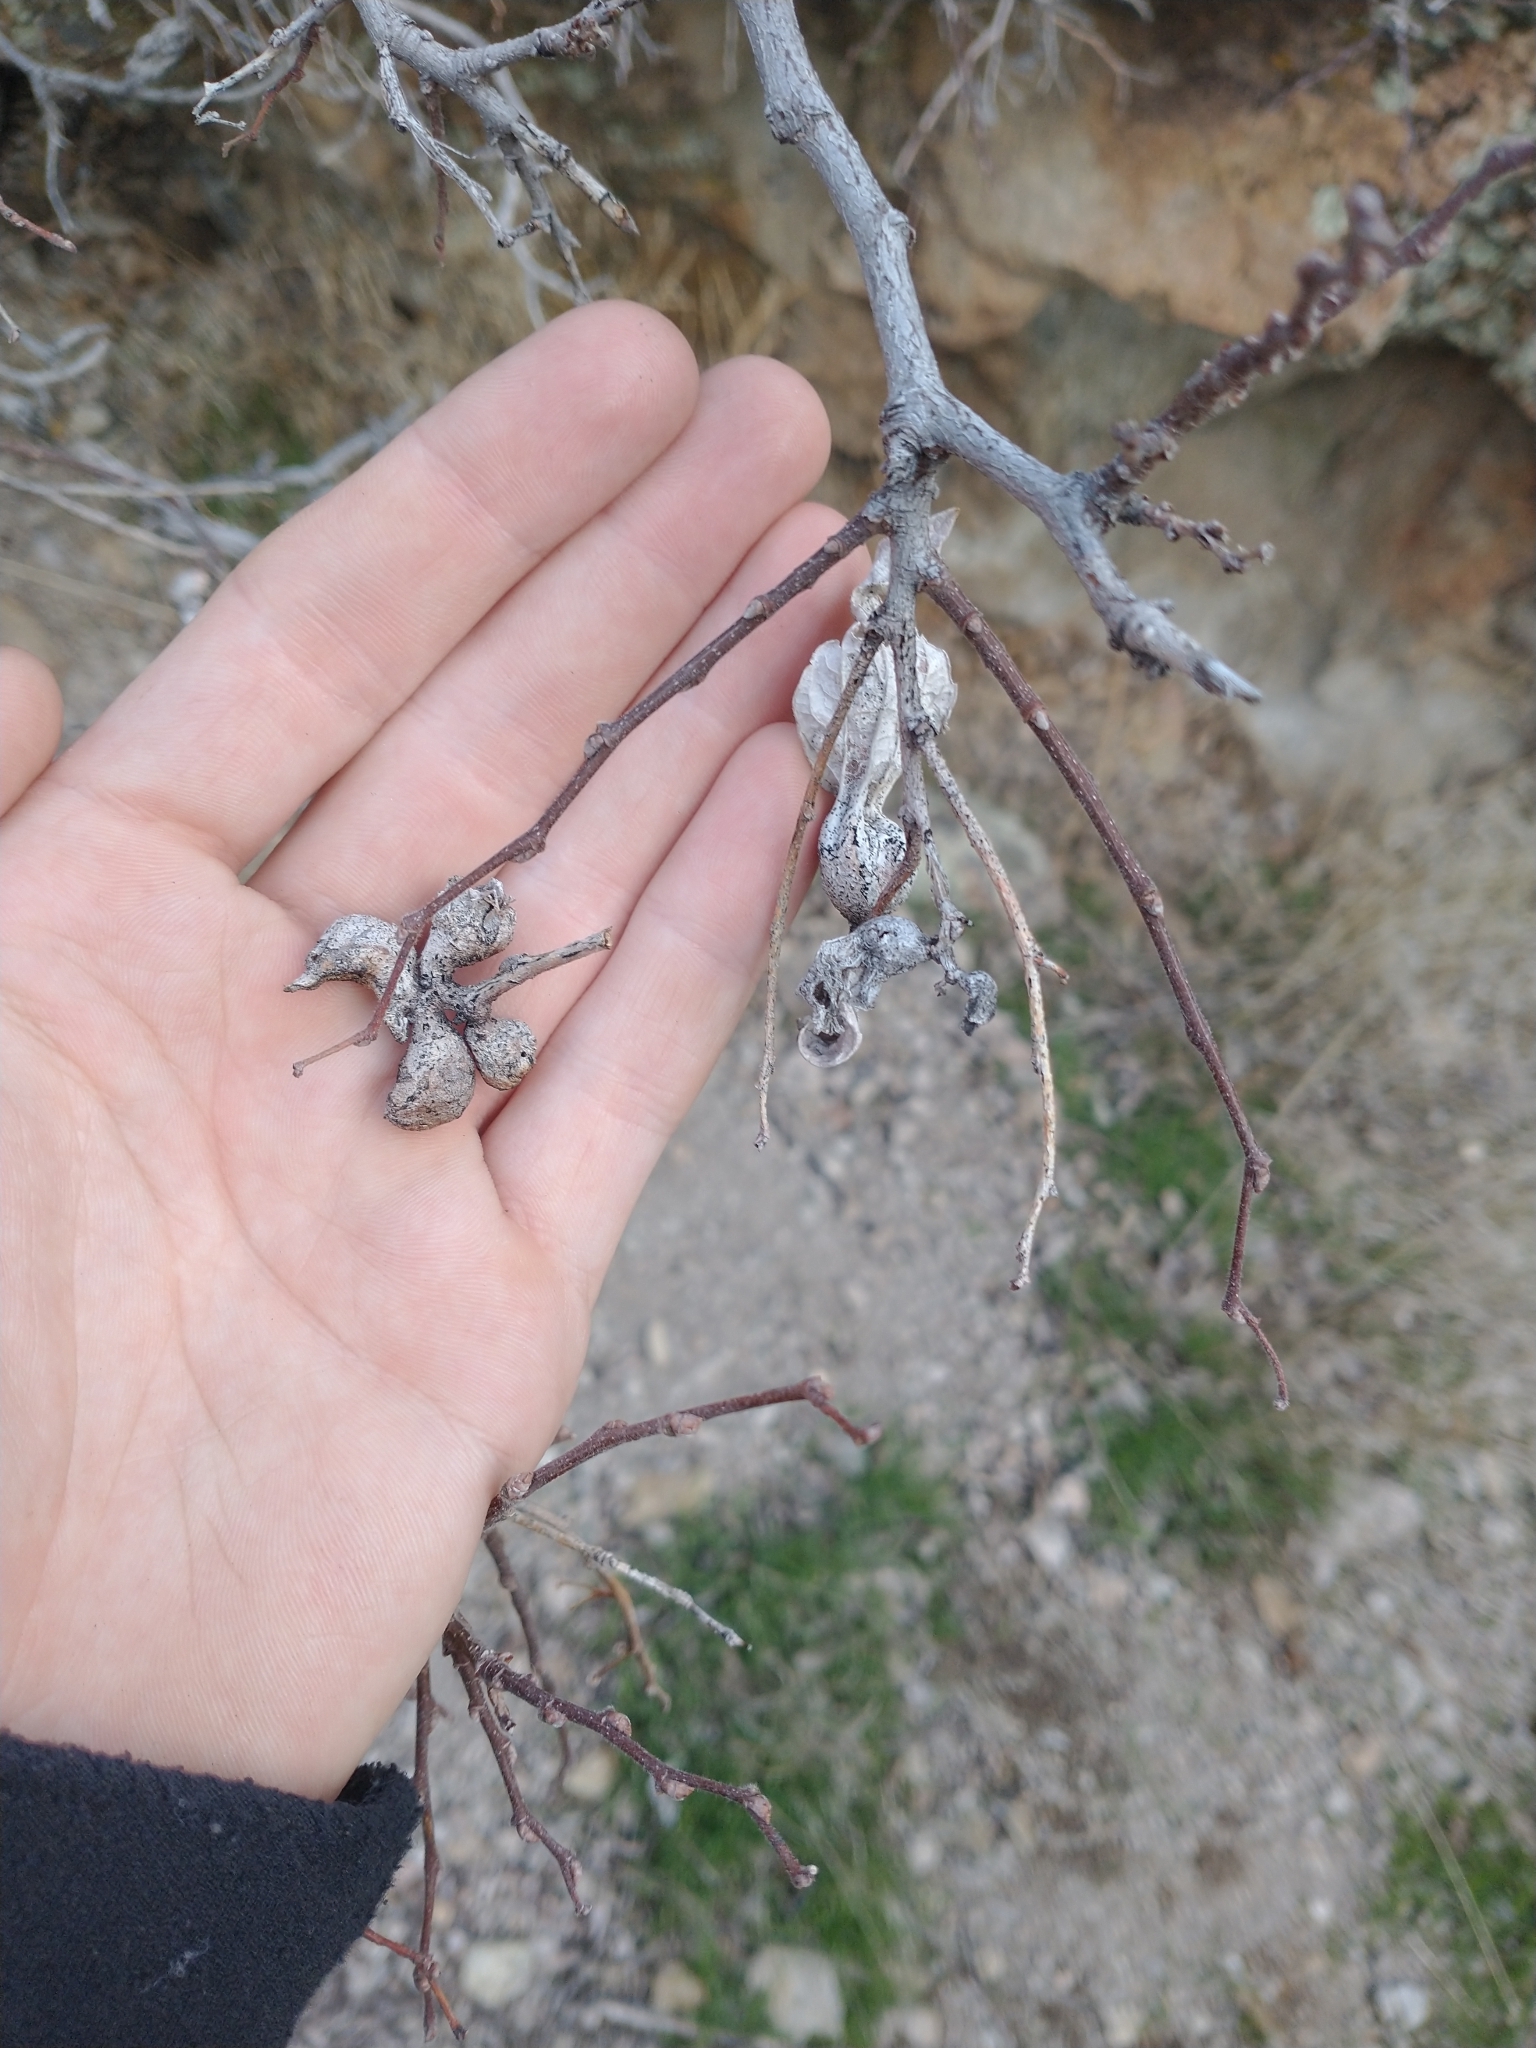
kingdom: Plantae
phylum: Tracheophyta
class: Magnoliopsida
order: Rosales
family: Cannabaceae
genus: Celtis
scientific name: Celtis reticulata
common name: Netleaf hackberry
